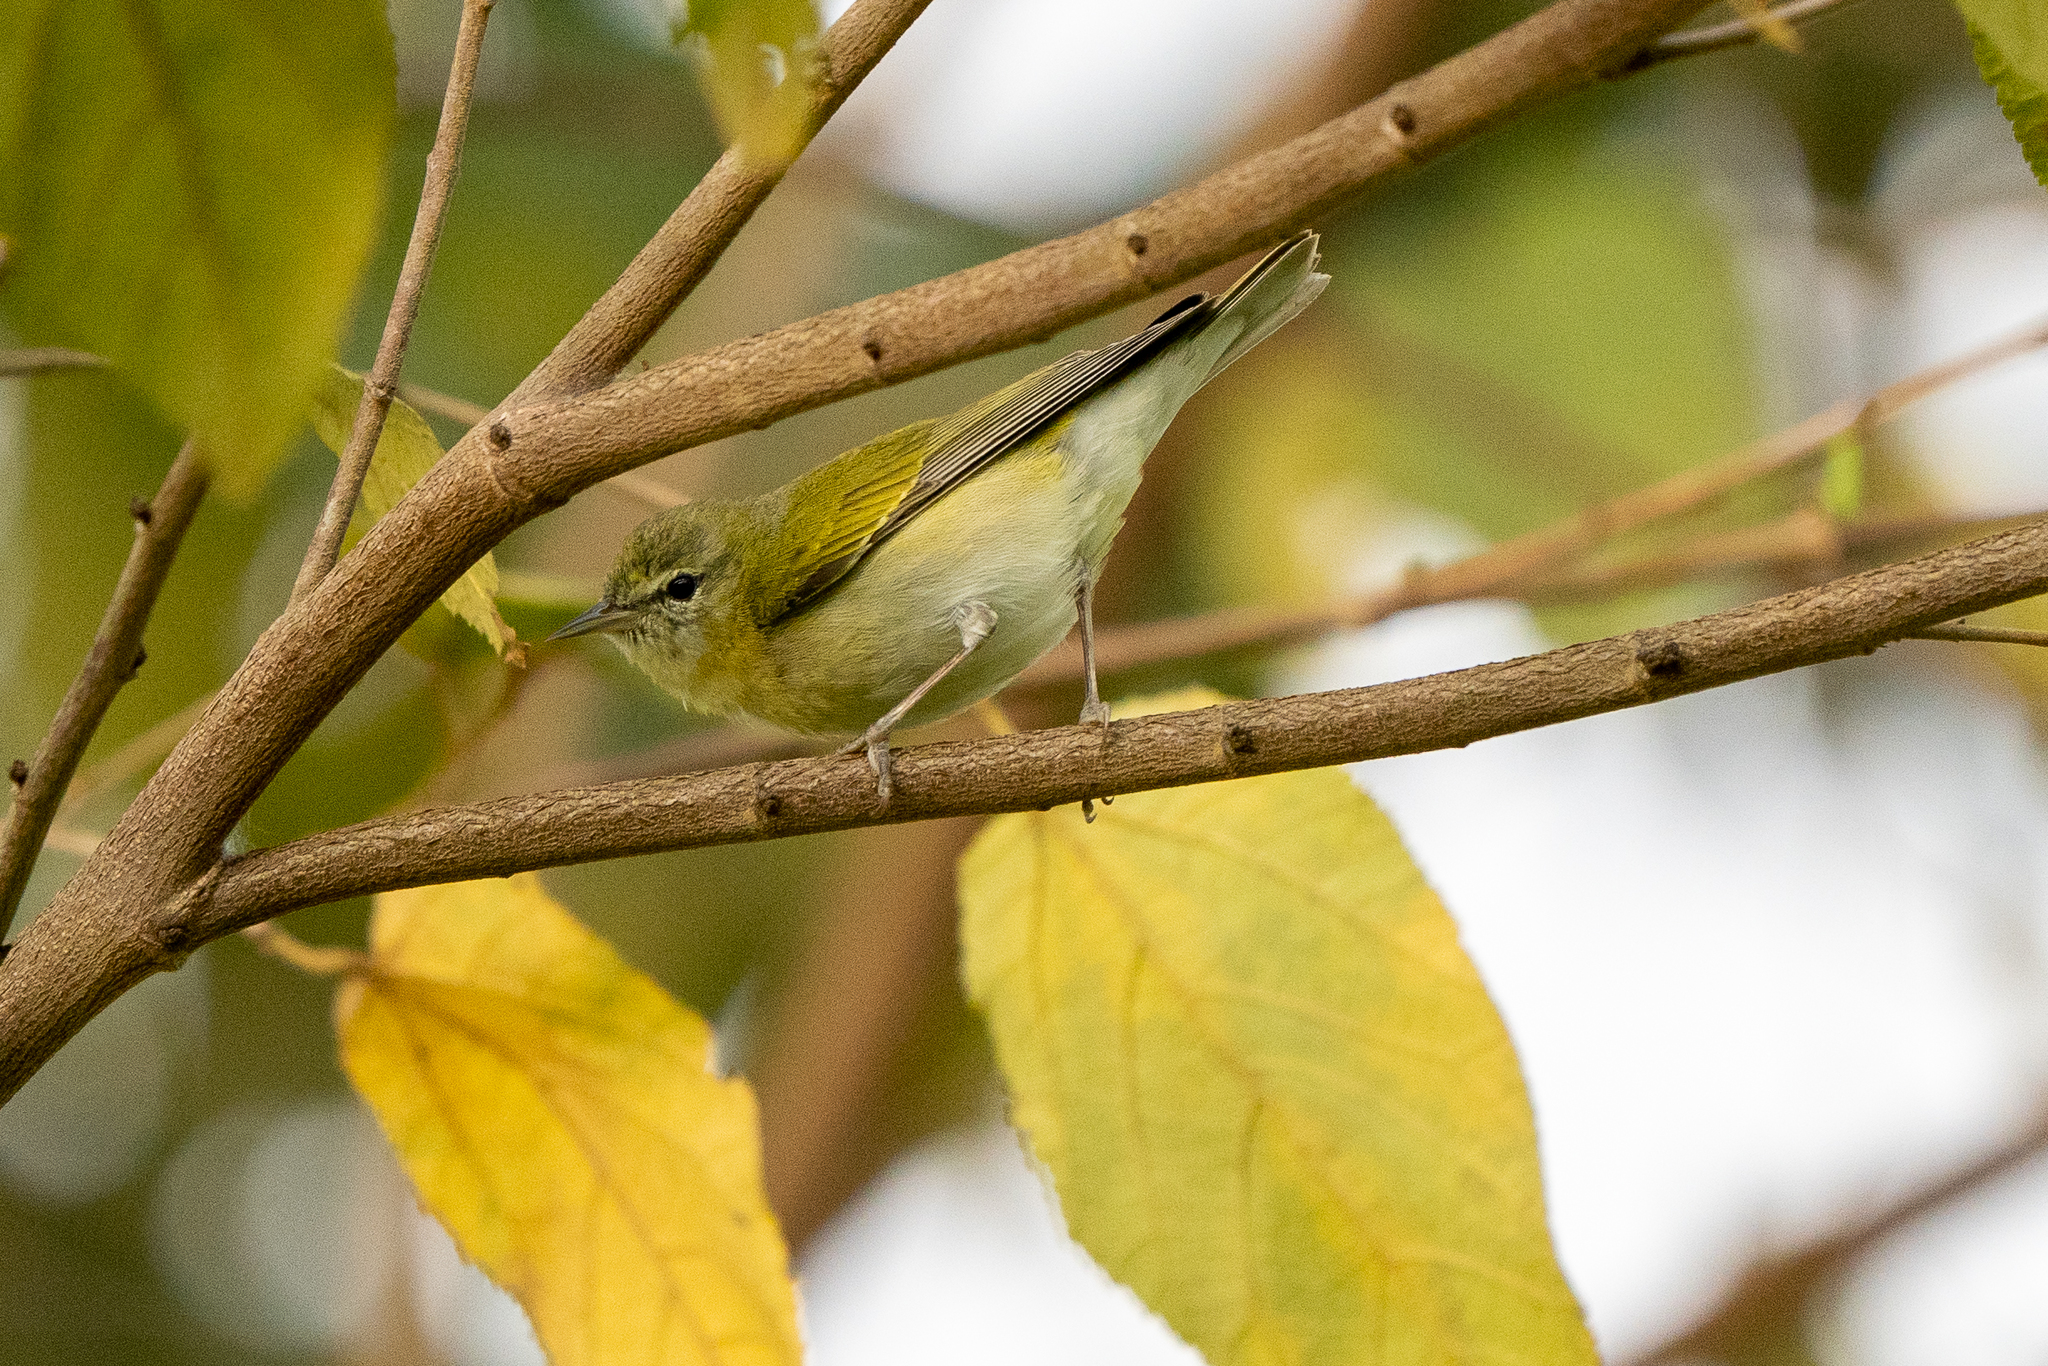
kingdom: Animalia
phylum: Chordata
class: Aves
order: Passeriformes
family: Parulidae
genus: Leiothlypis
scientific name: Leiothlypis peregrina
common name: Tennessee warbler
